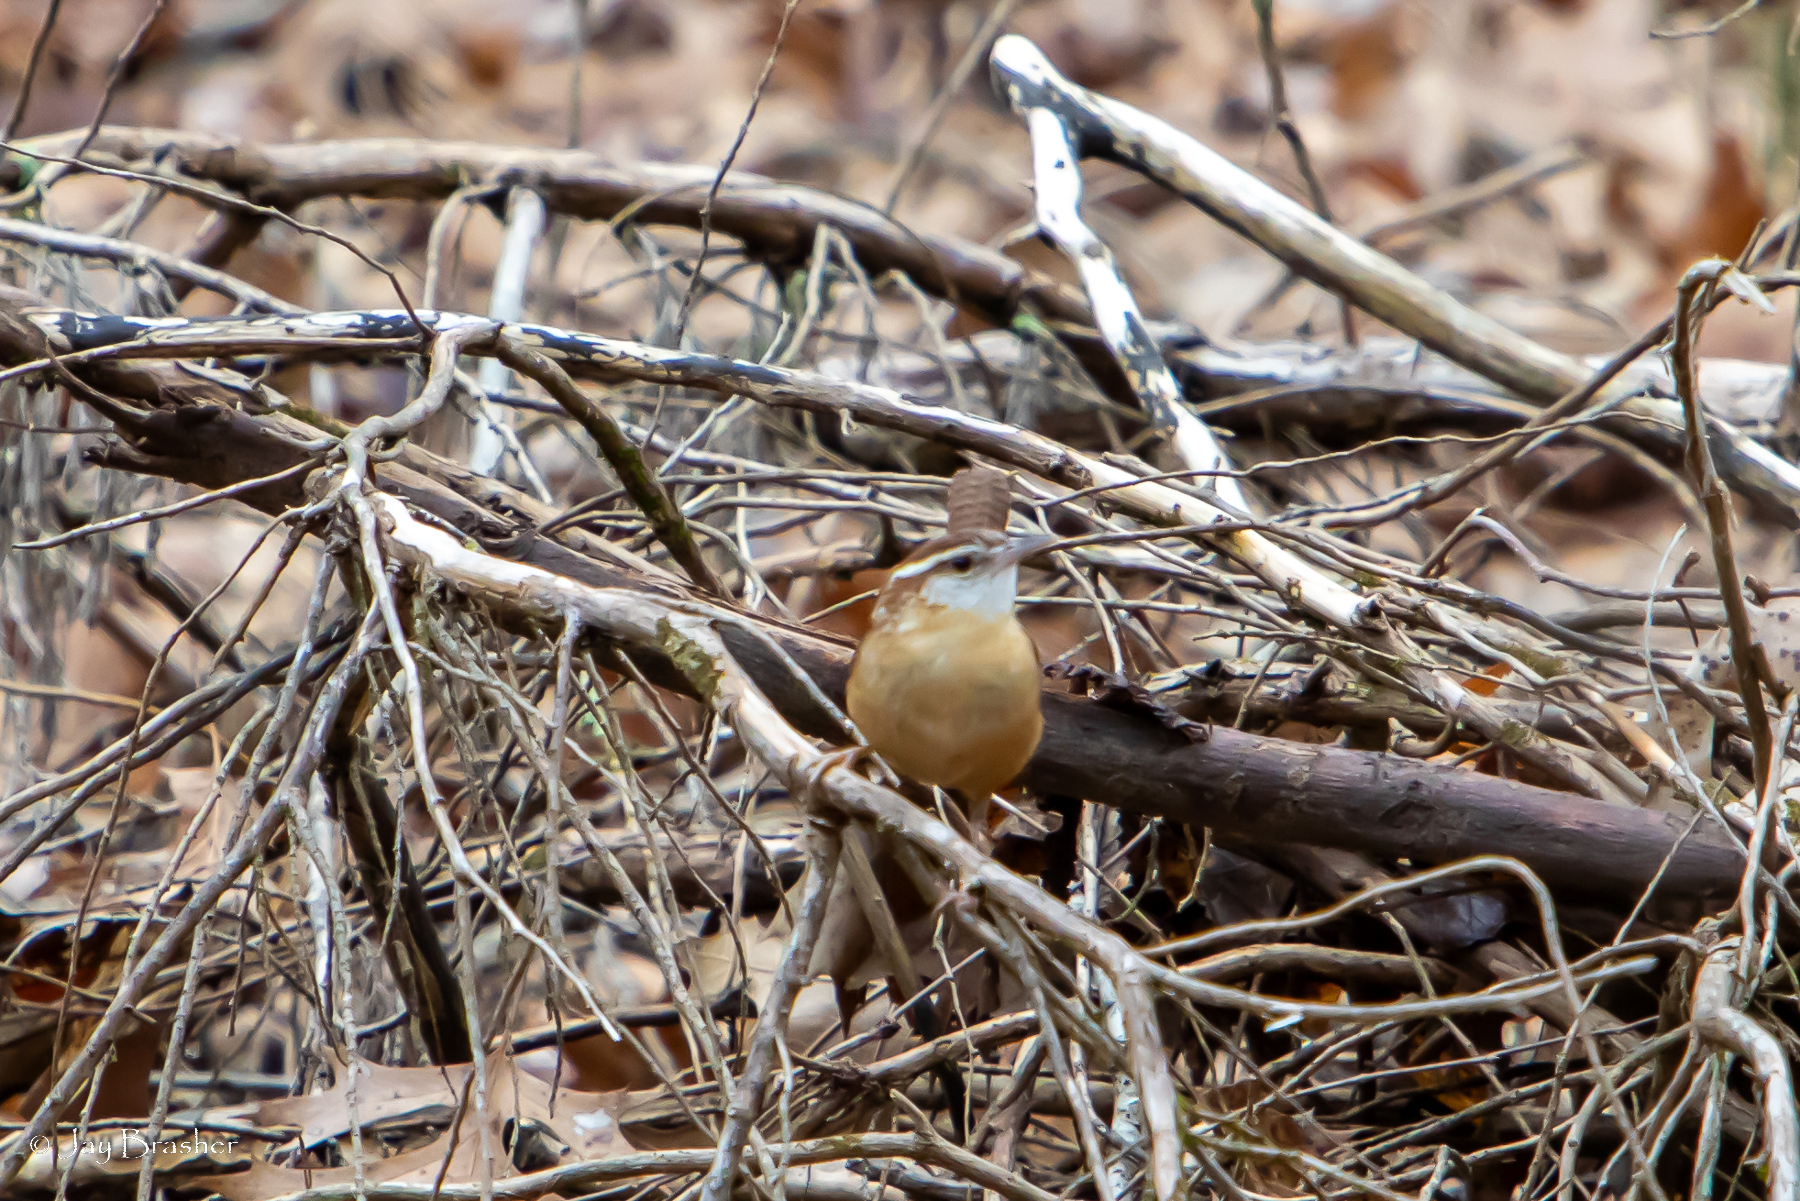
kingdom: Animalia
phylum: Chordata
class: Aves
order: Passeriformes
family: Troglodytidae
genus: Thryothorus
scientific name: Thryothorus ludovicianus
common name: Carolina wren
